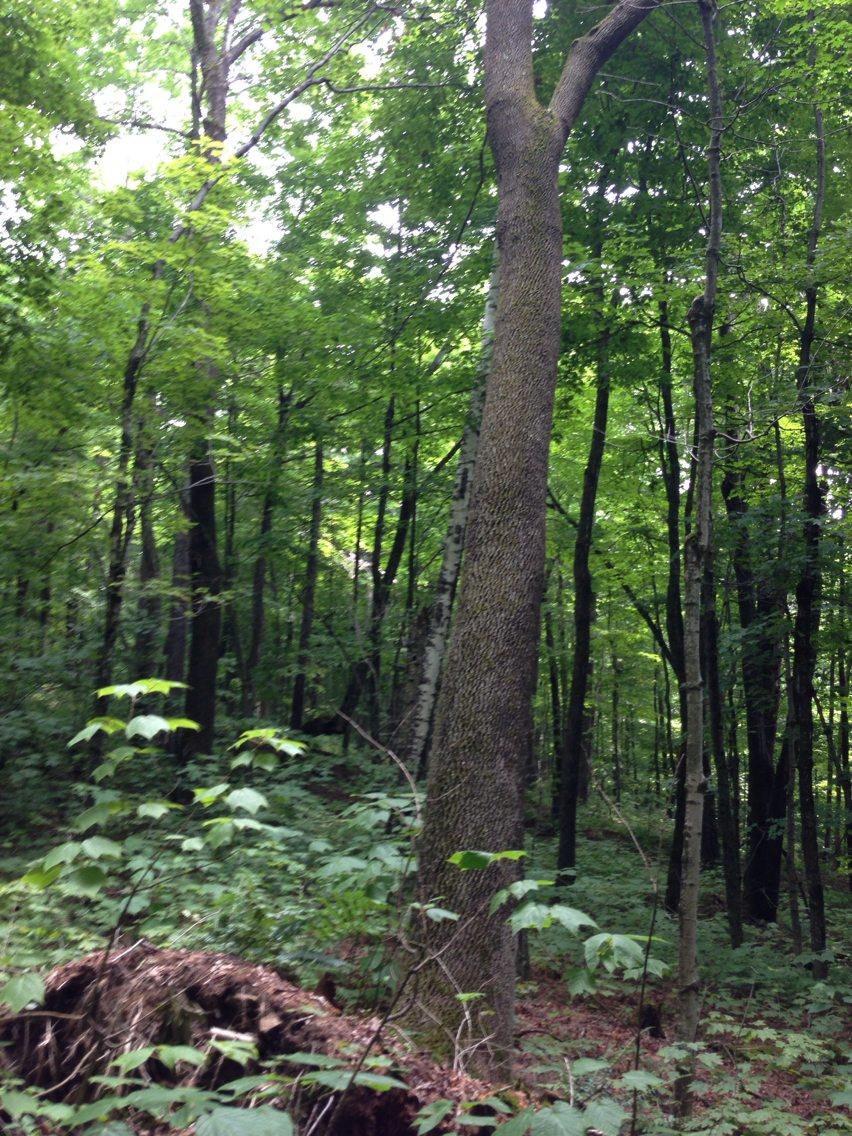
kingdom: Plantae
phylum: Tracheophyta
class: Magnoliopsida
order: Lamiales
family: Oleaceae
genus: Fraxinus
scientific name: Fraxinus americana
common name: White ash
